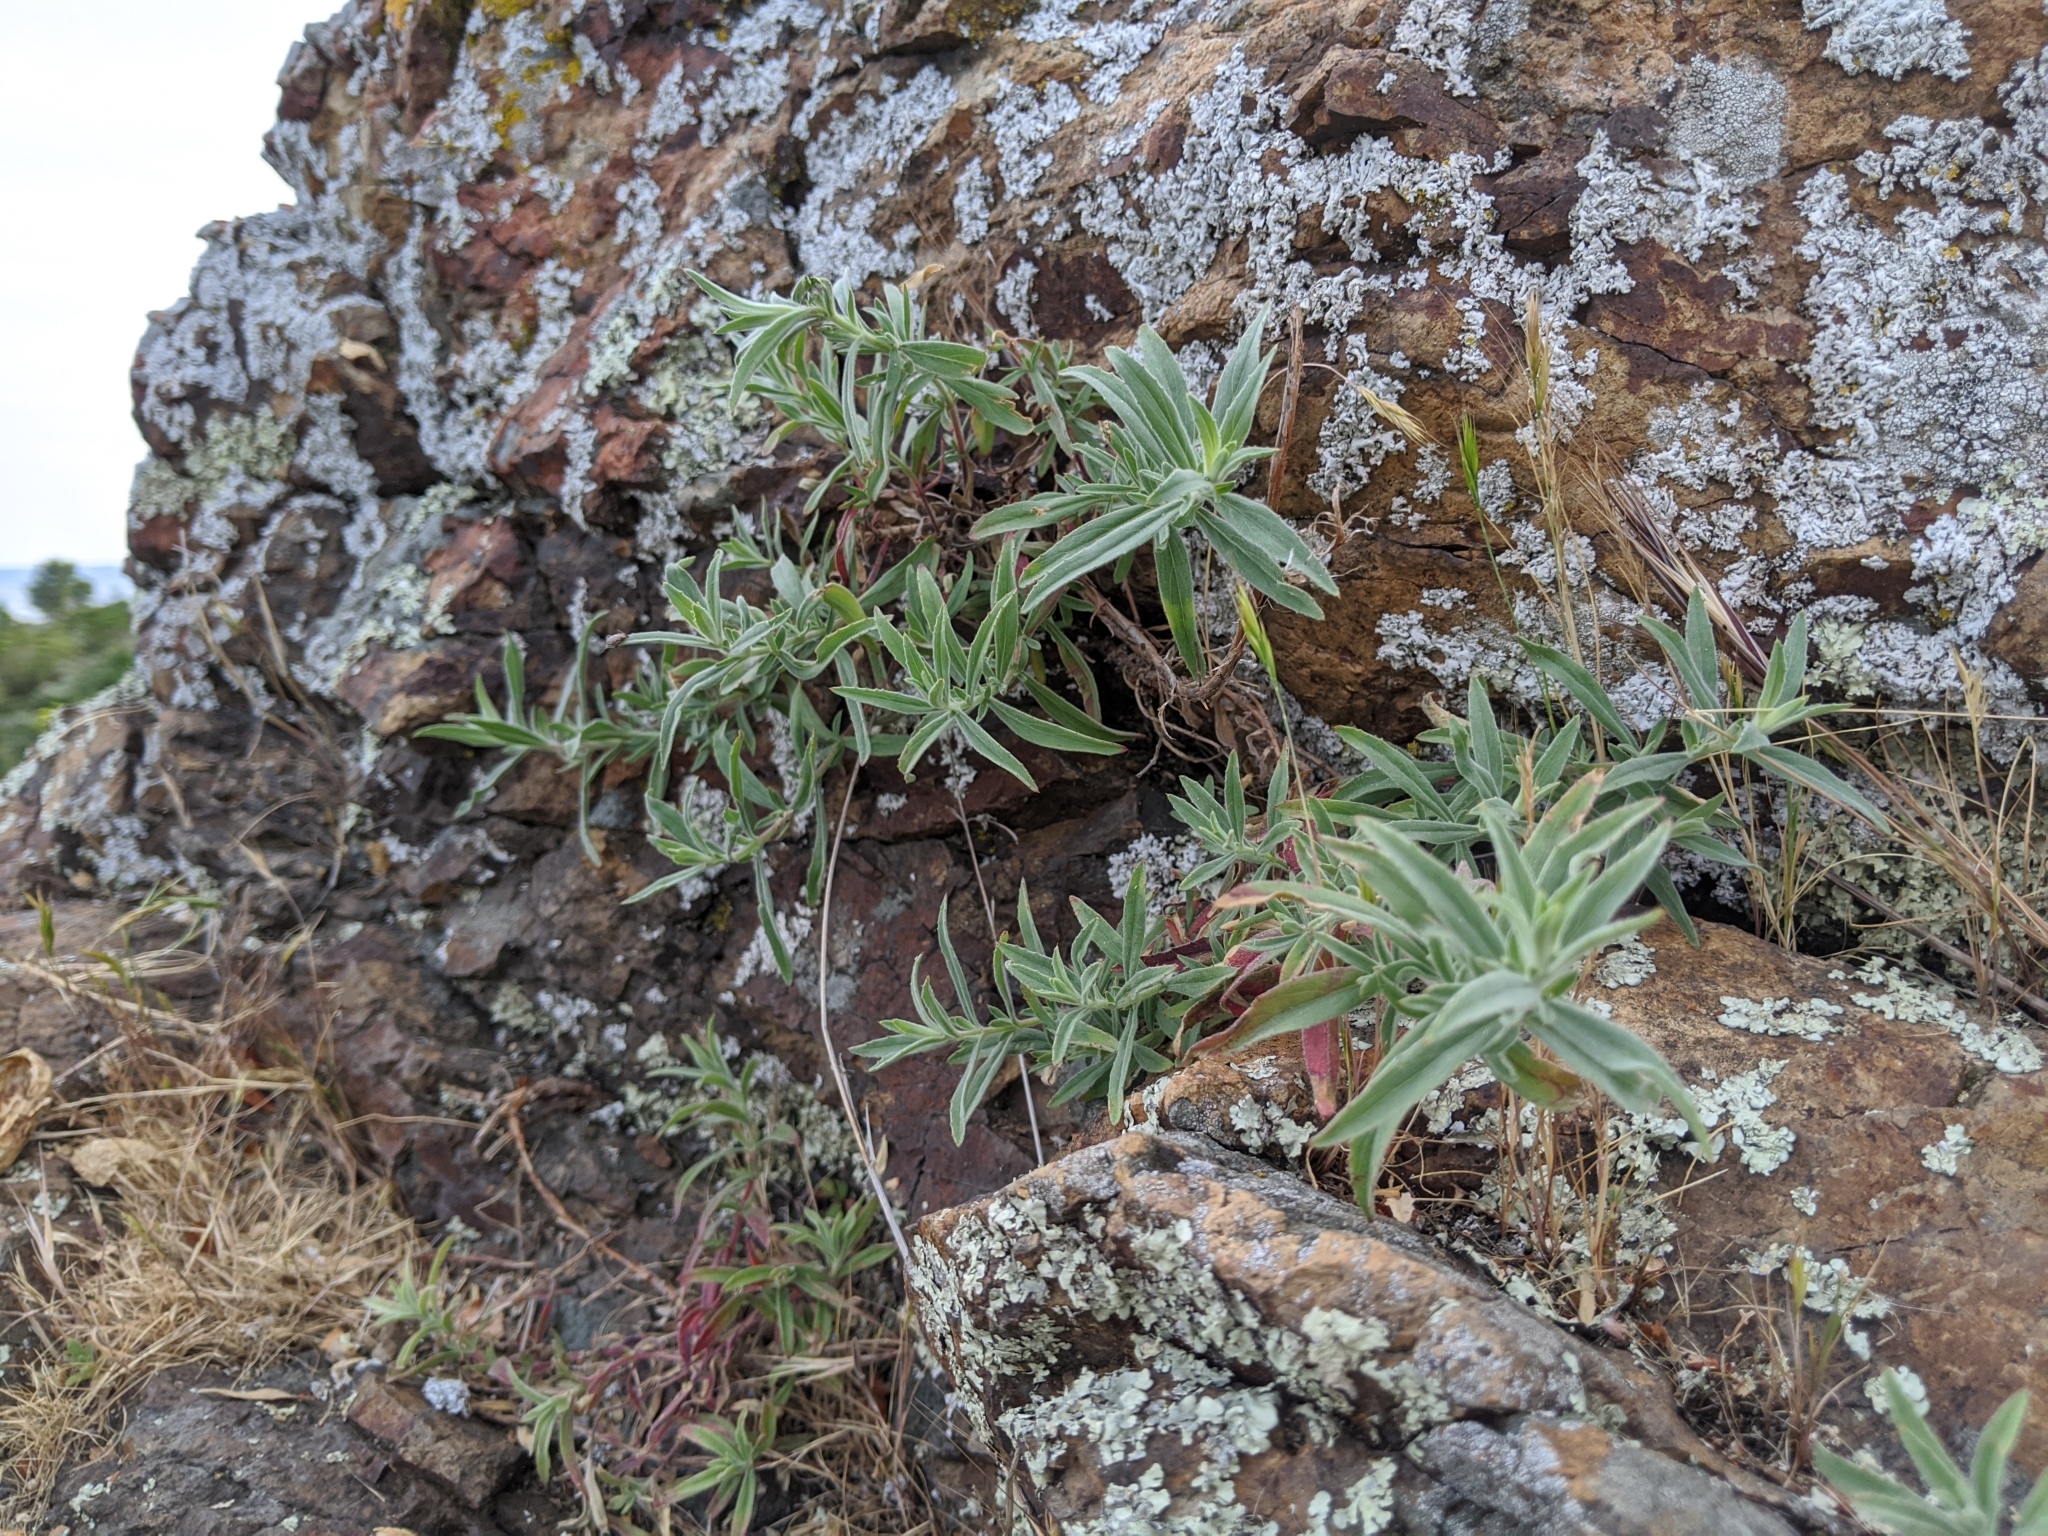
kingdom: Plantae
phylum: Tracheophyta
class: Magnoliopsida
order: Myrtales
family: Onagraceae
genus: Epilobium
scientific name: Epilobium canum
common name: California-fuchsia
